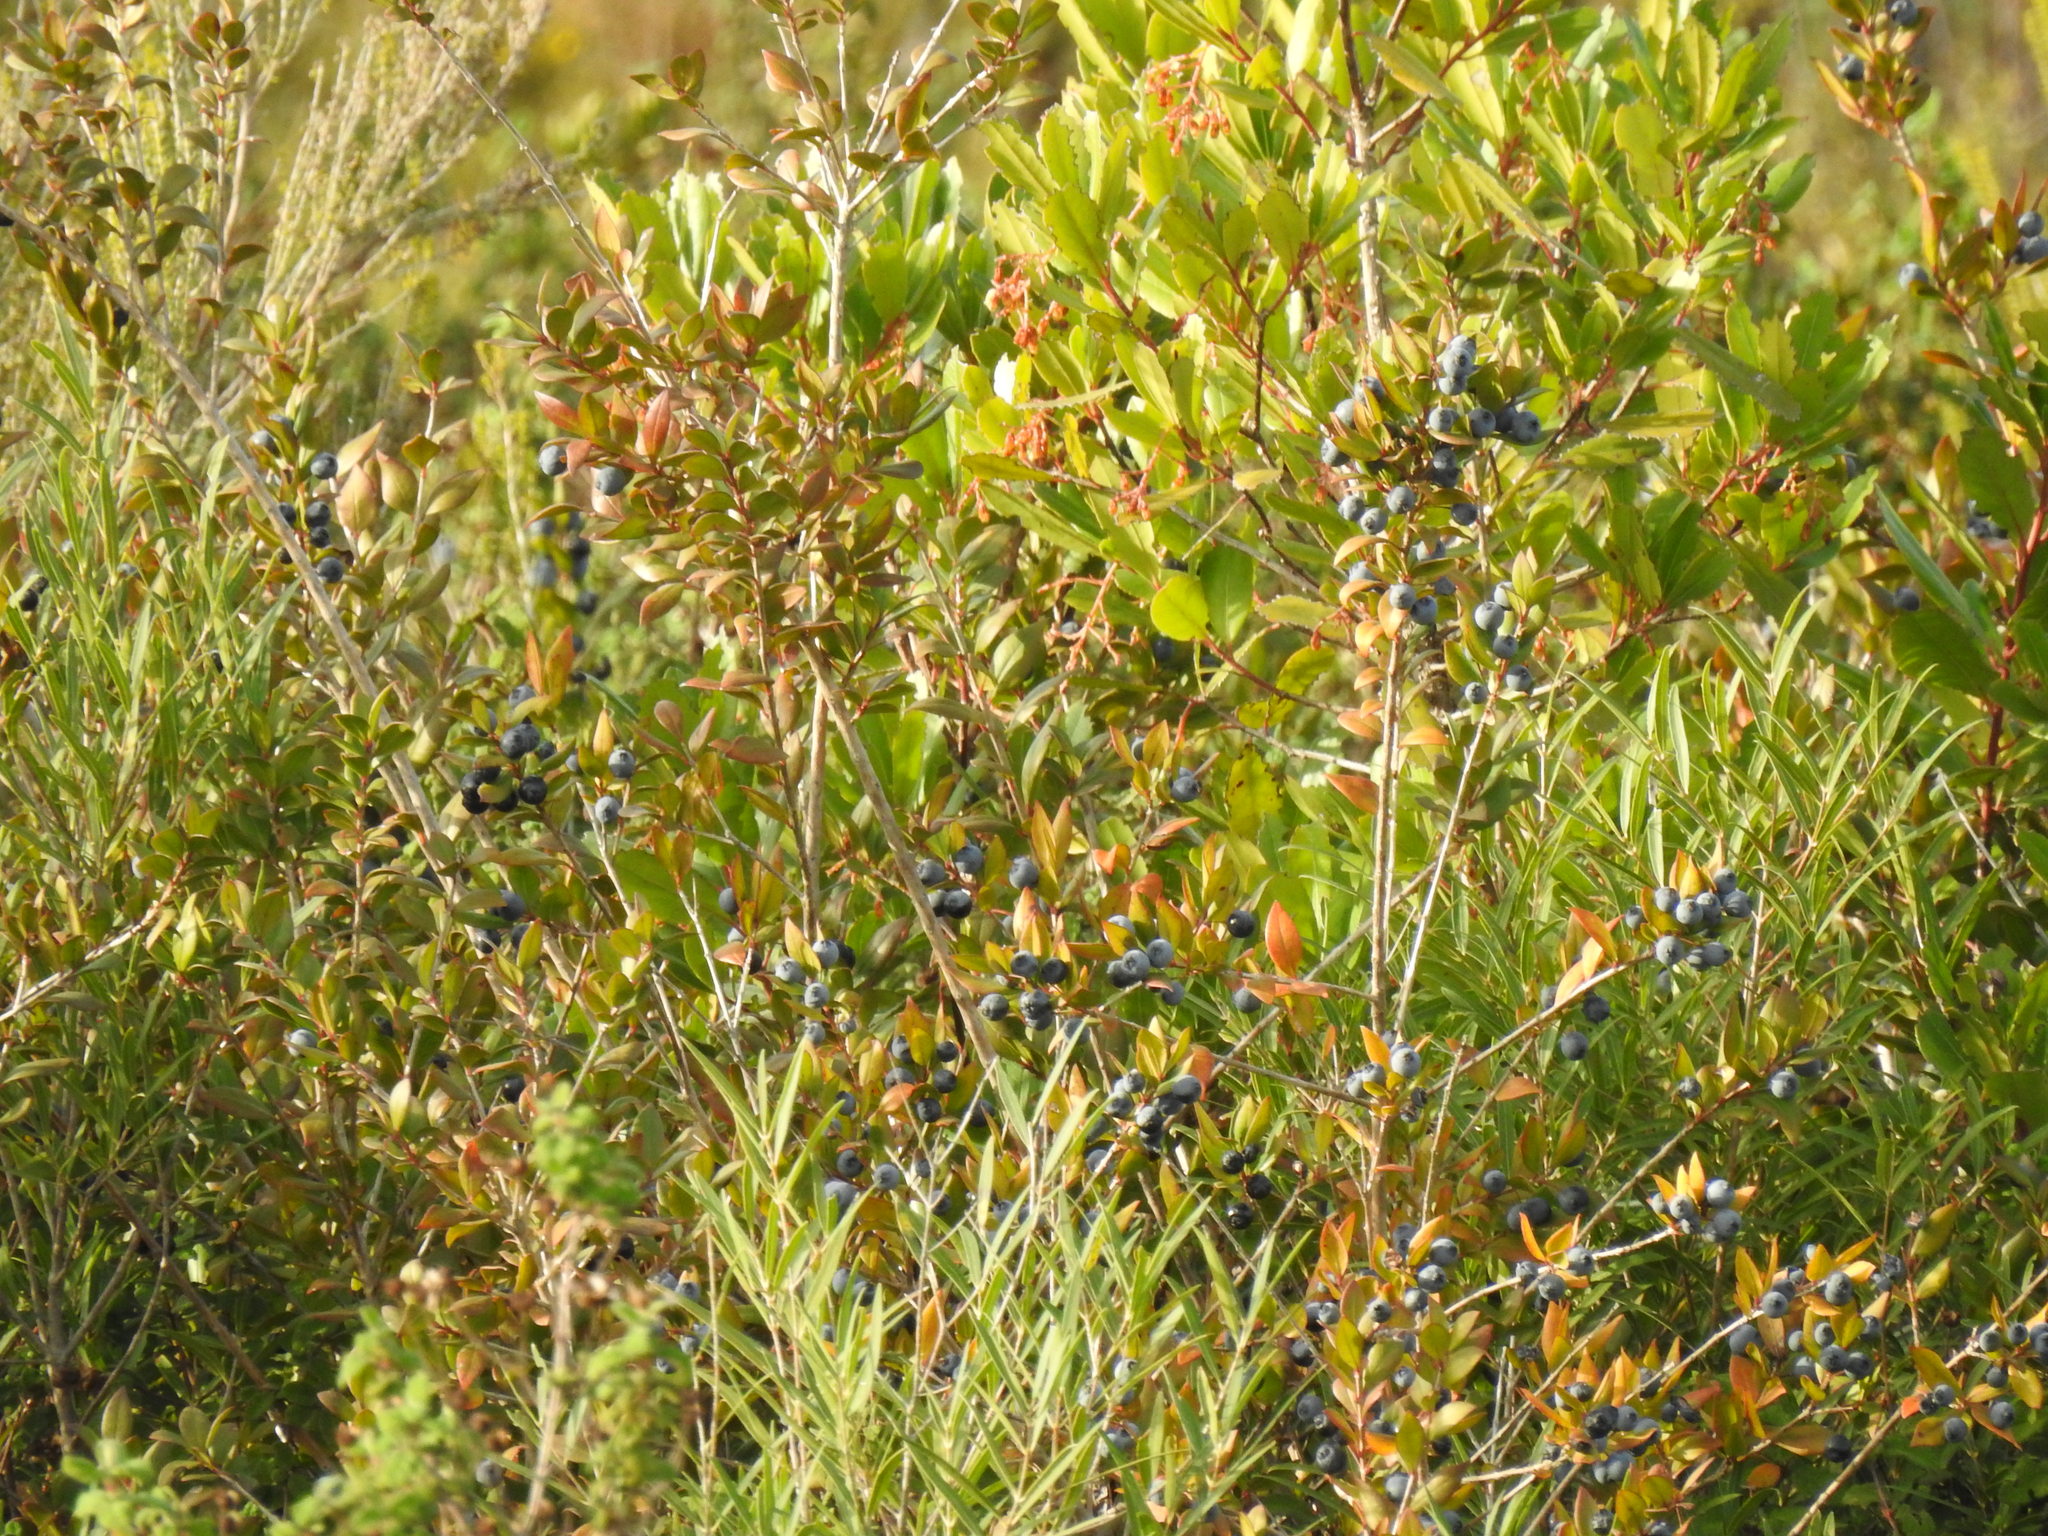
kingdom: Plantae
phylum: Tracheophyta
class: Magnoliopsida
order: Myrtales
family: Myrtaceae
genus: Myrtus
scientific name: Myrtus communis
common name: Myrtle
